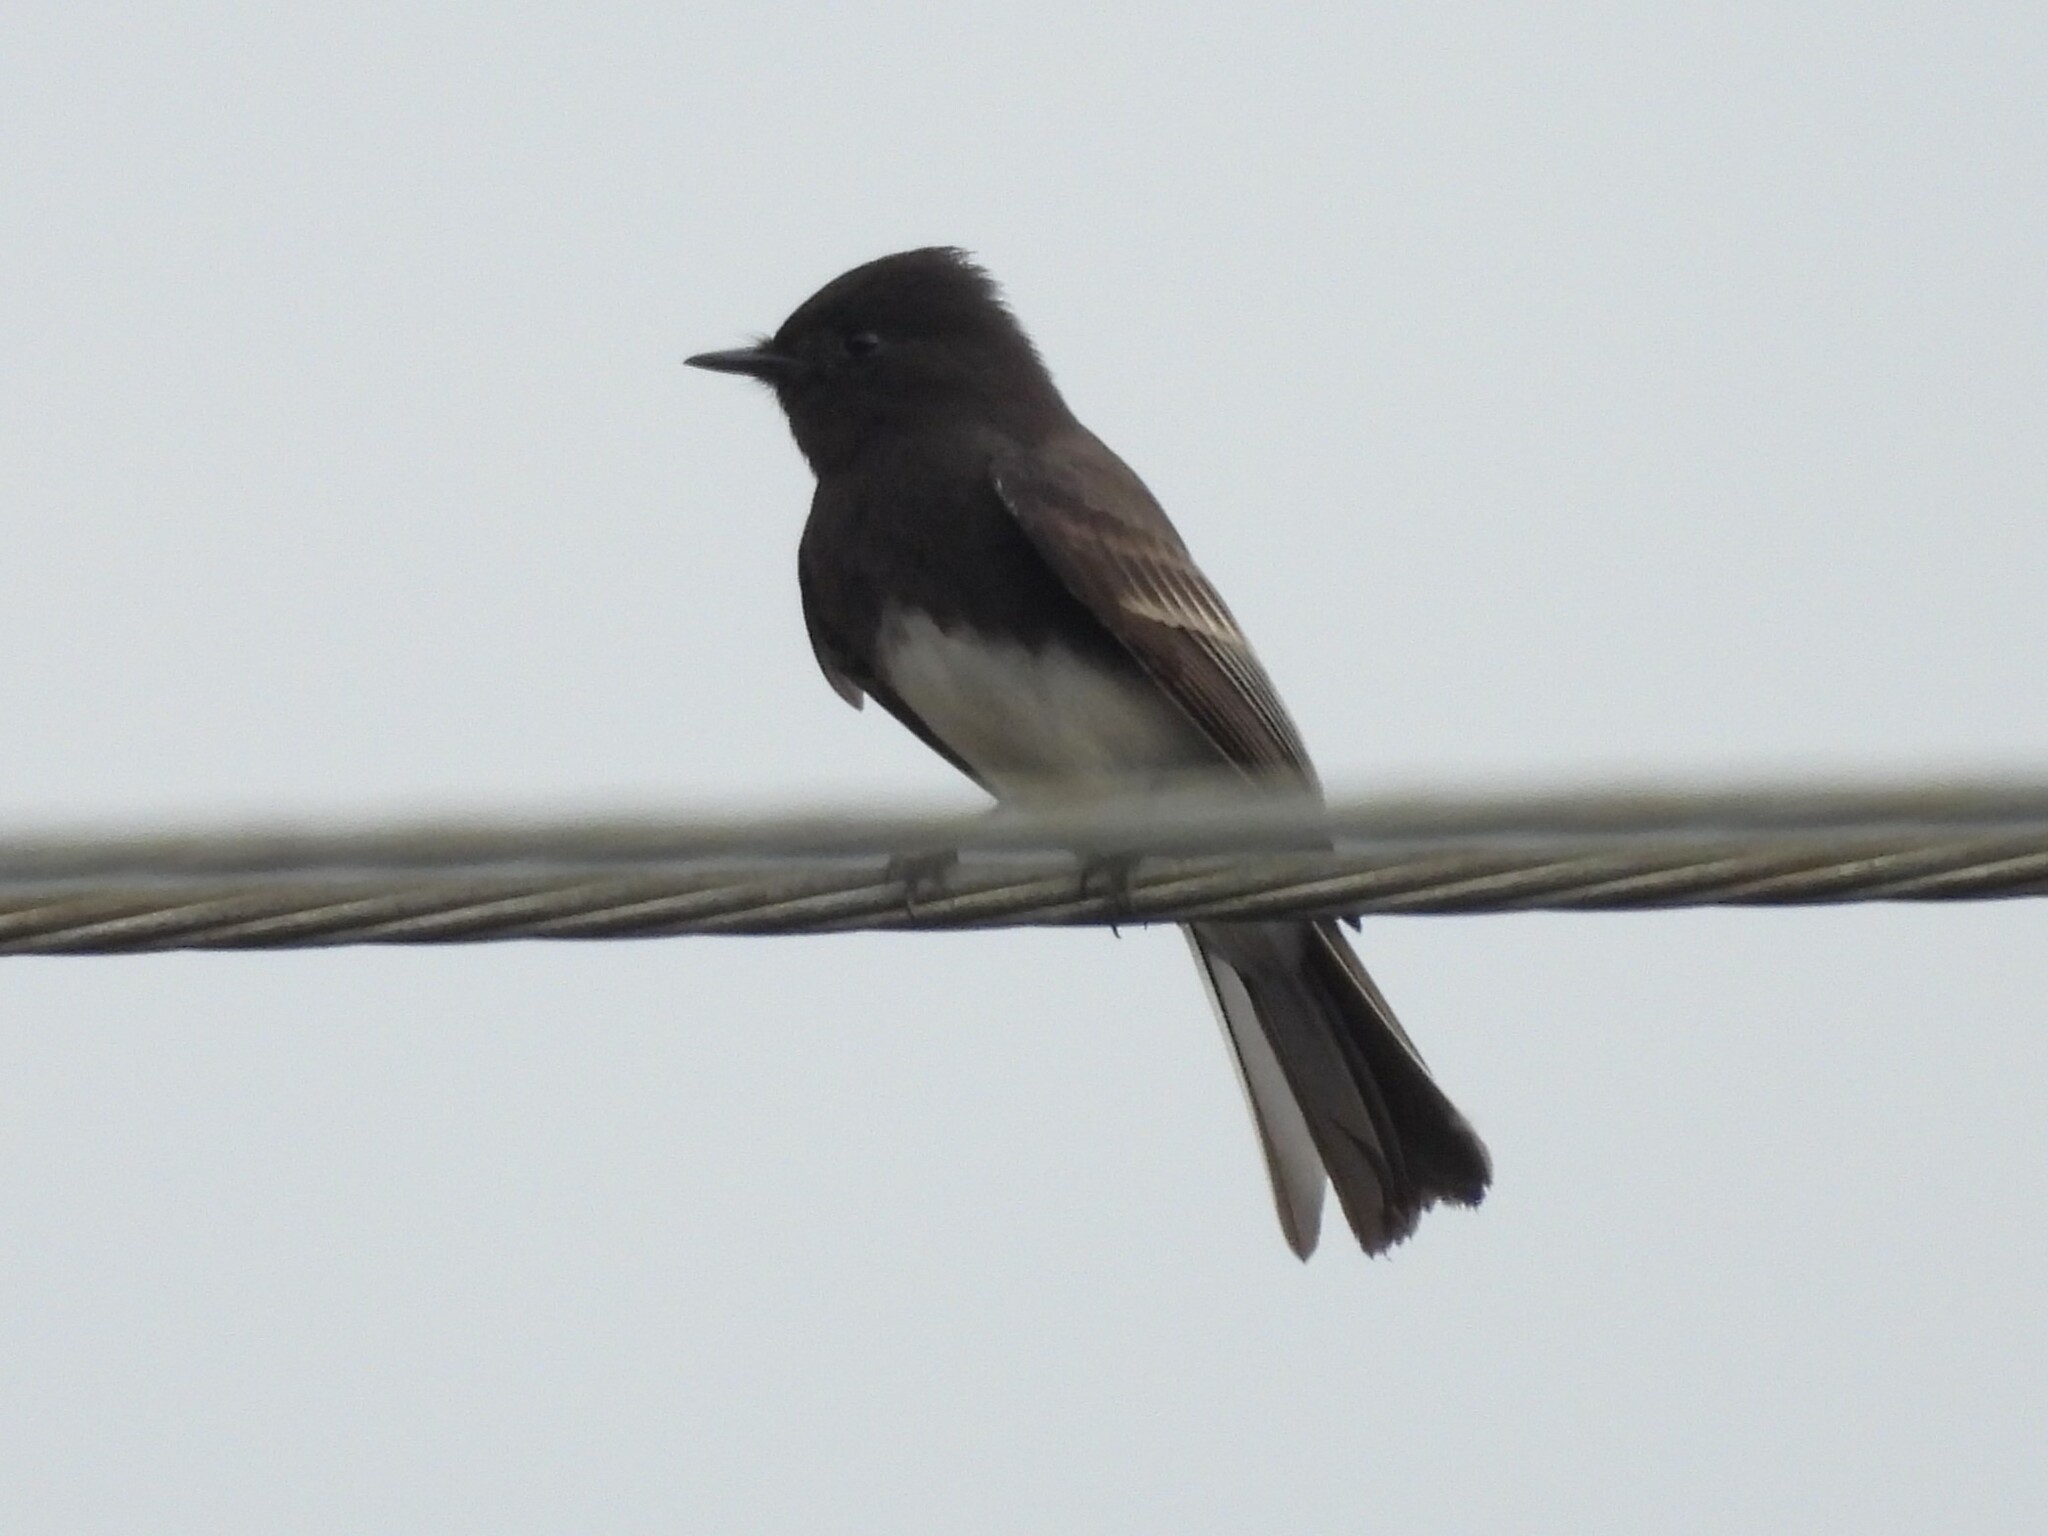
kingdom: Animalia
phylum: Chordata
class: Aves
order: Passeriformes
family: Tyrannidae
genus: Sayornis
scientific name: Sayornis nigricans
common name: Black phoebe
